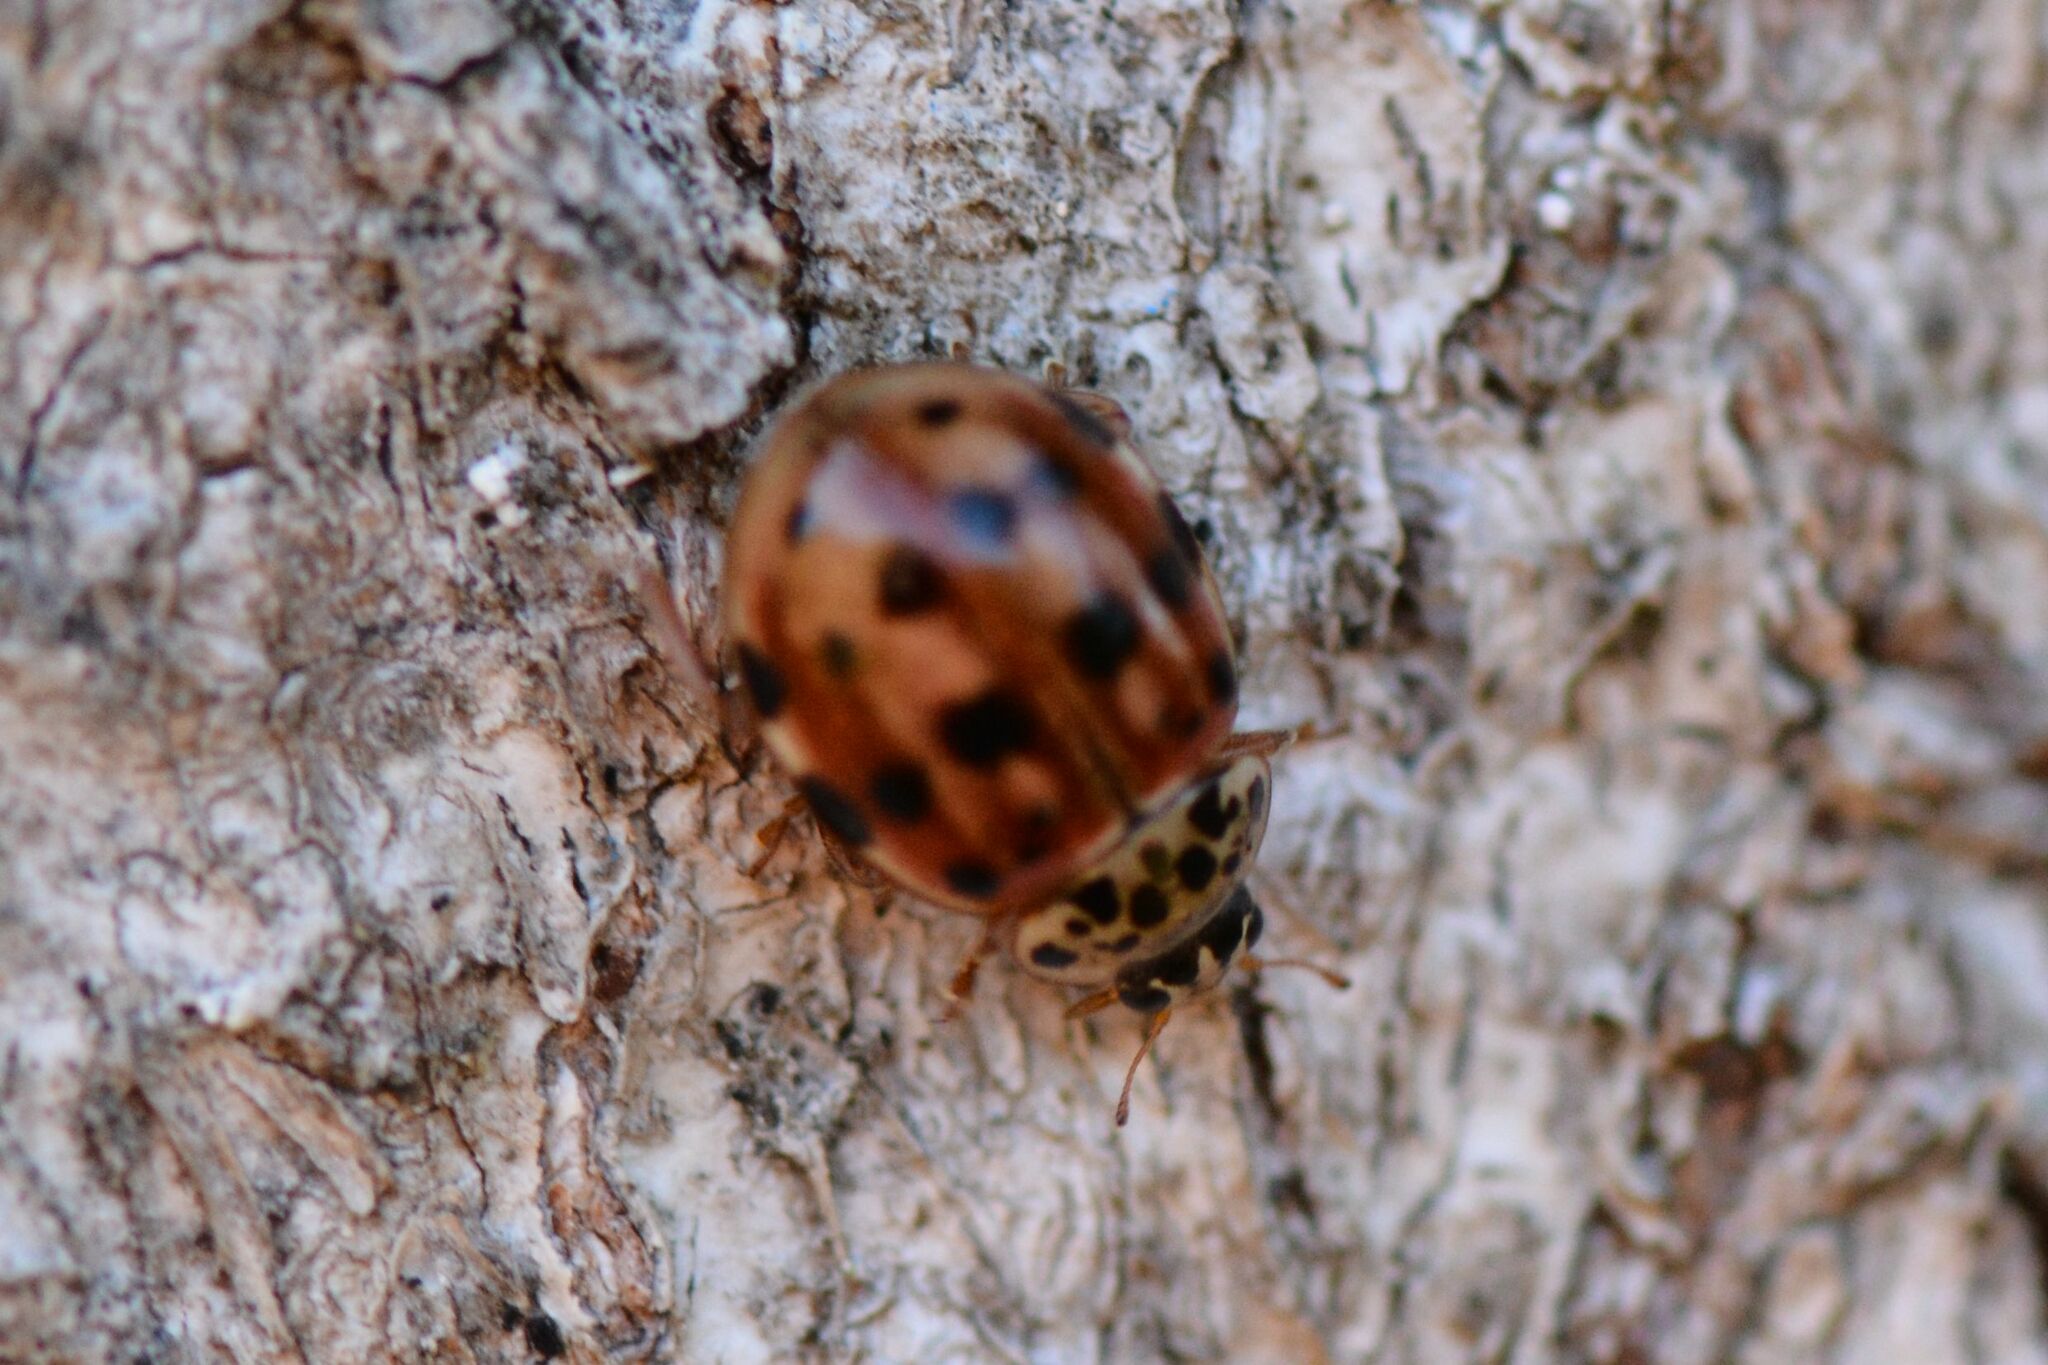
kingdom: Animalia
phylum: Arthropoda
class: Insecta
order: Coleoptera
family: Coccinellidae
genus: Harmonia
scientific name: Harmonia quadripunctata
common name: Cream-streaked ladybird
